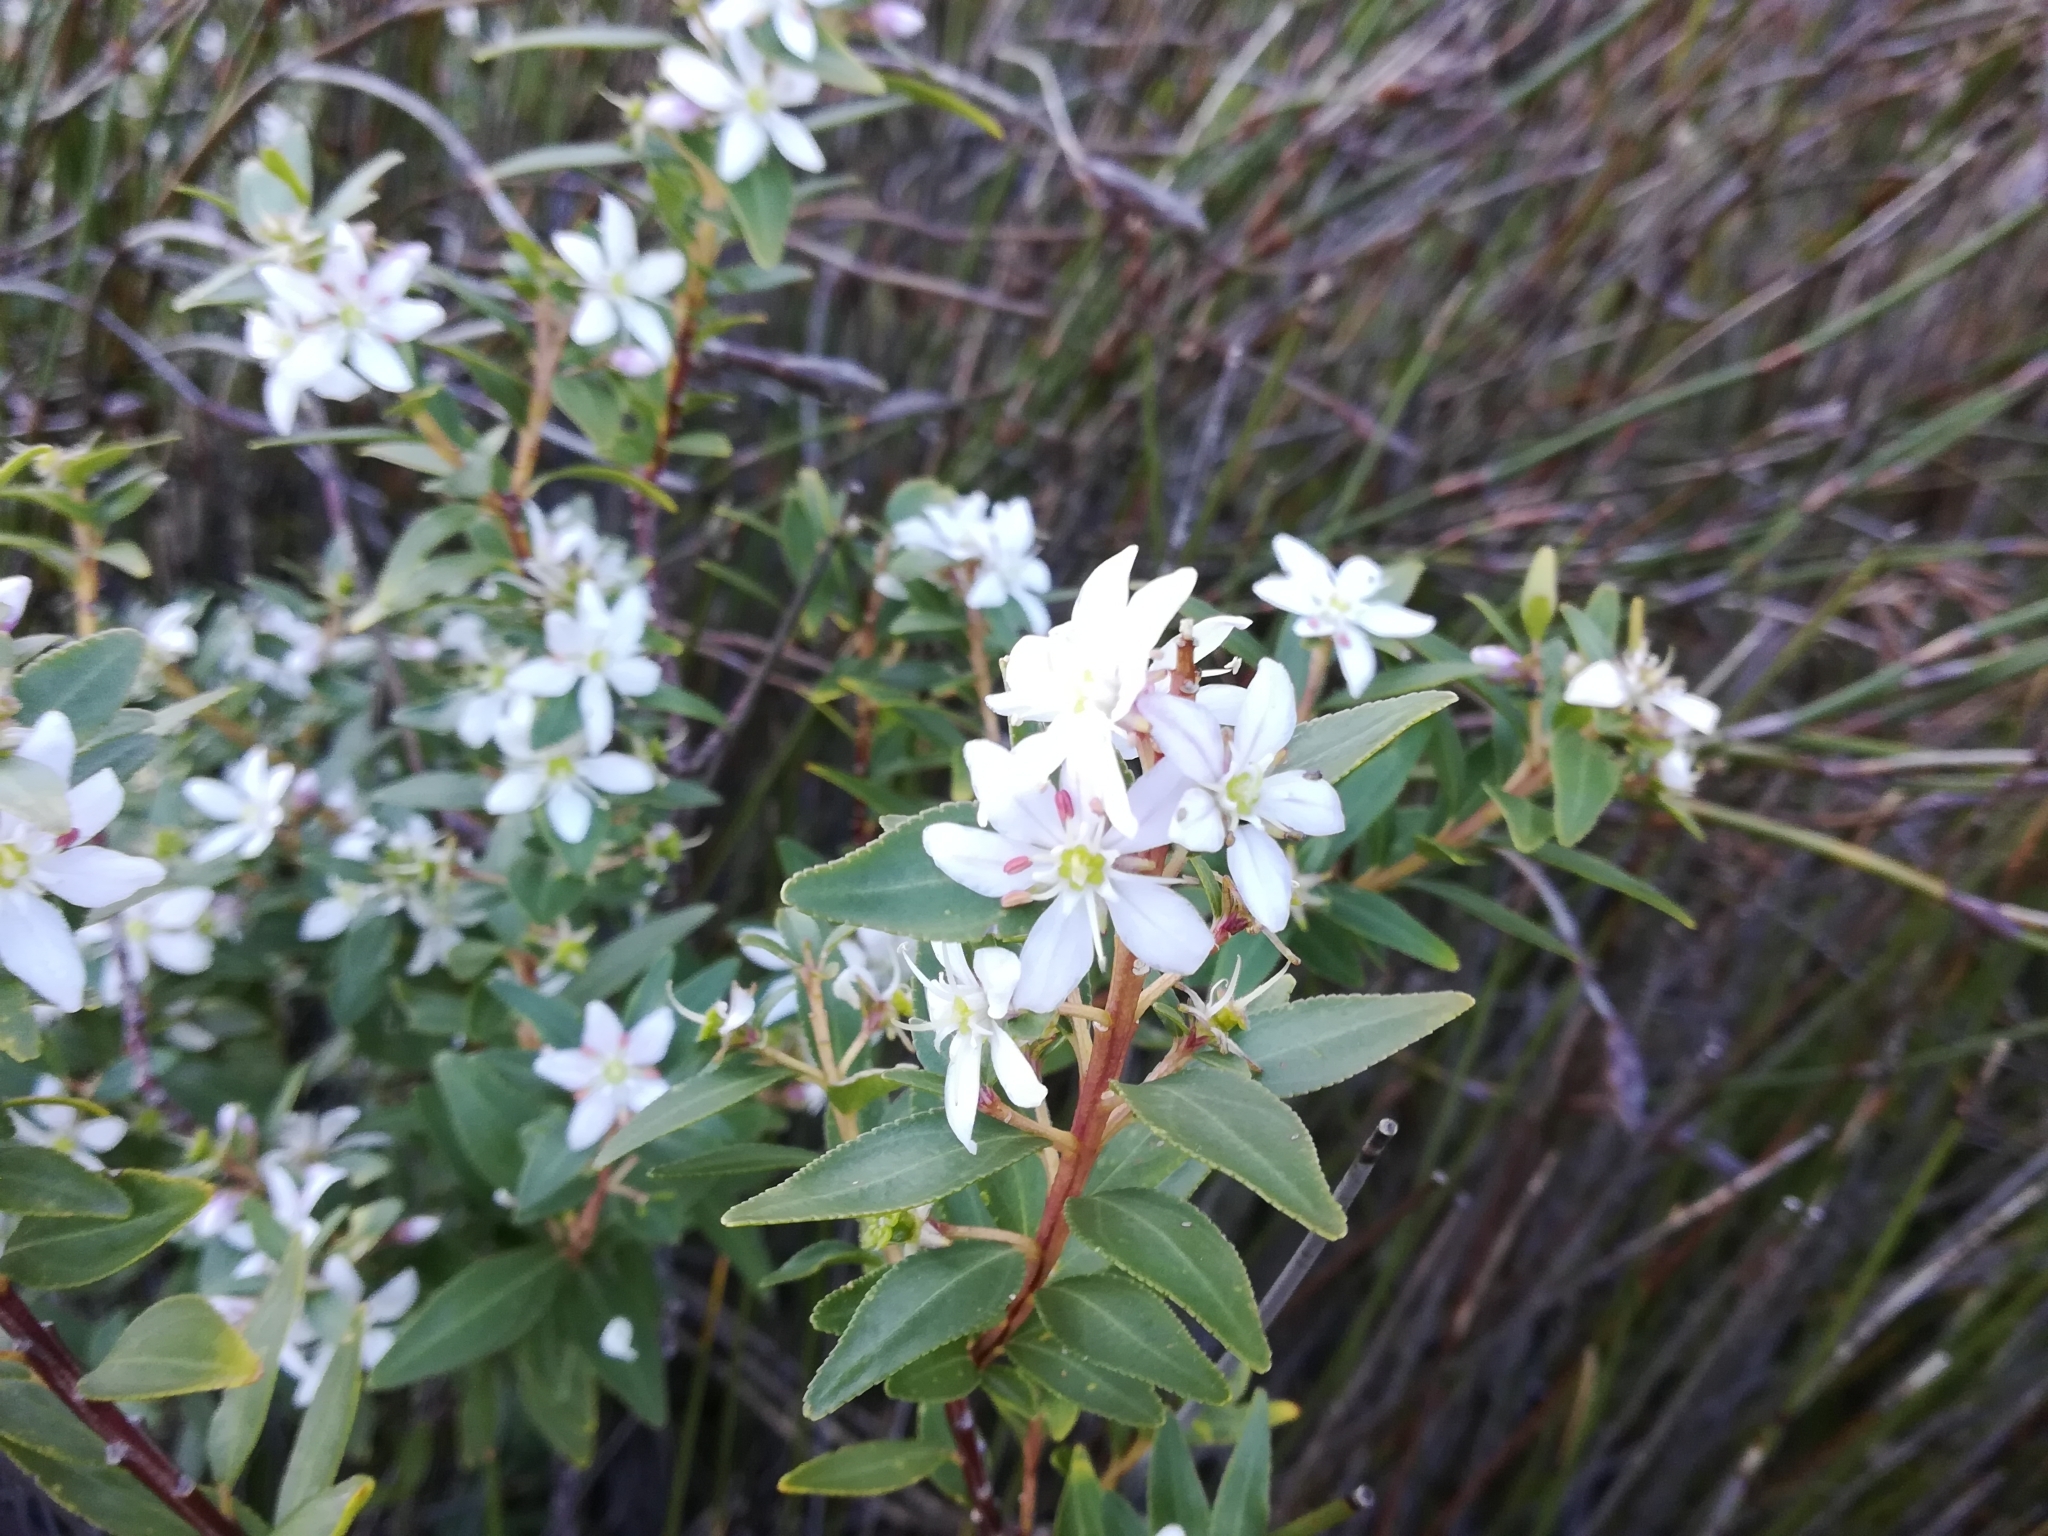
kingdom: Plantae
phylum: Tracheophyta
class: Magnoliopsida
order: Sapindales
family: Rutaceae
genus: Agathosma
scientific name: Agathosma crenulata
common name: Oval buchu
